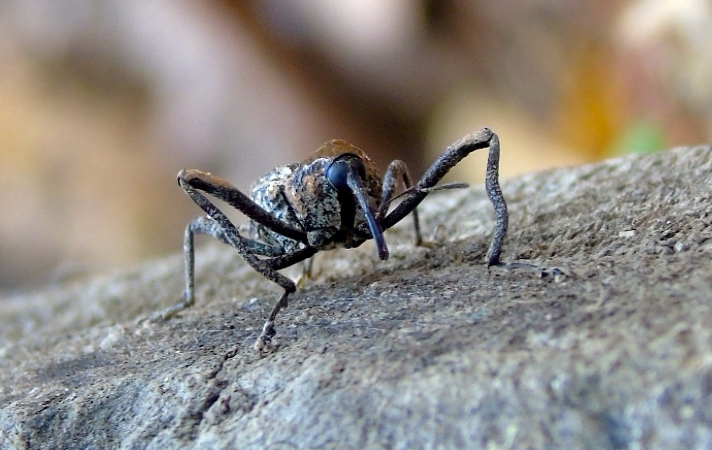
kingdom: Animalia
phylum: Arthropoda
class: Insecta
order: Coleoptera
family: Curculionidae
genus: Macromerus
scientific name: Macromerus
